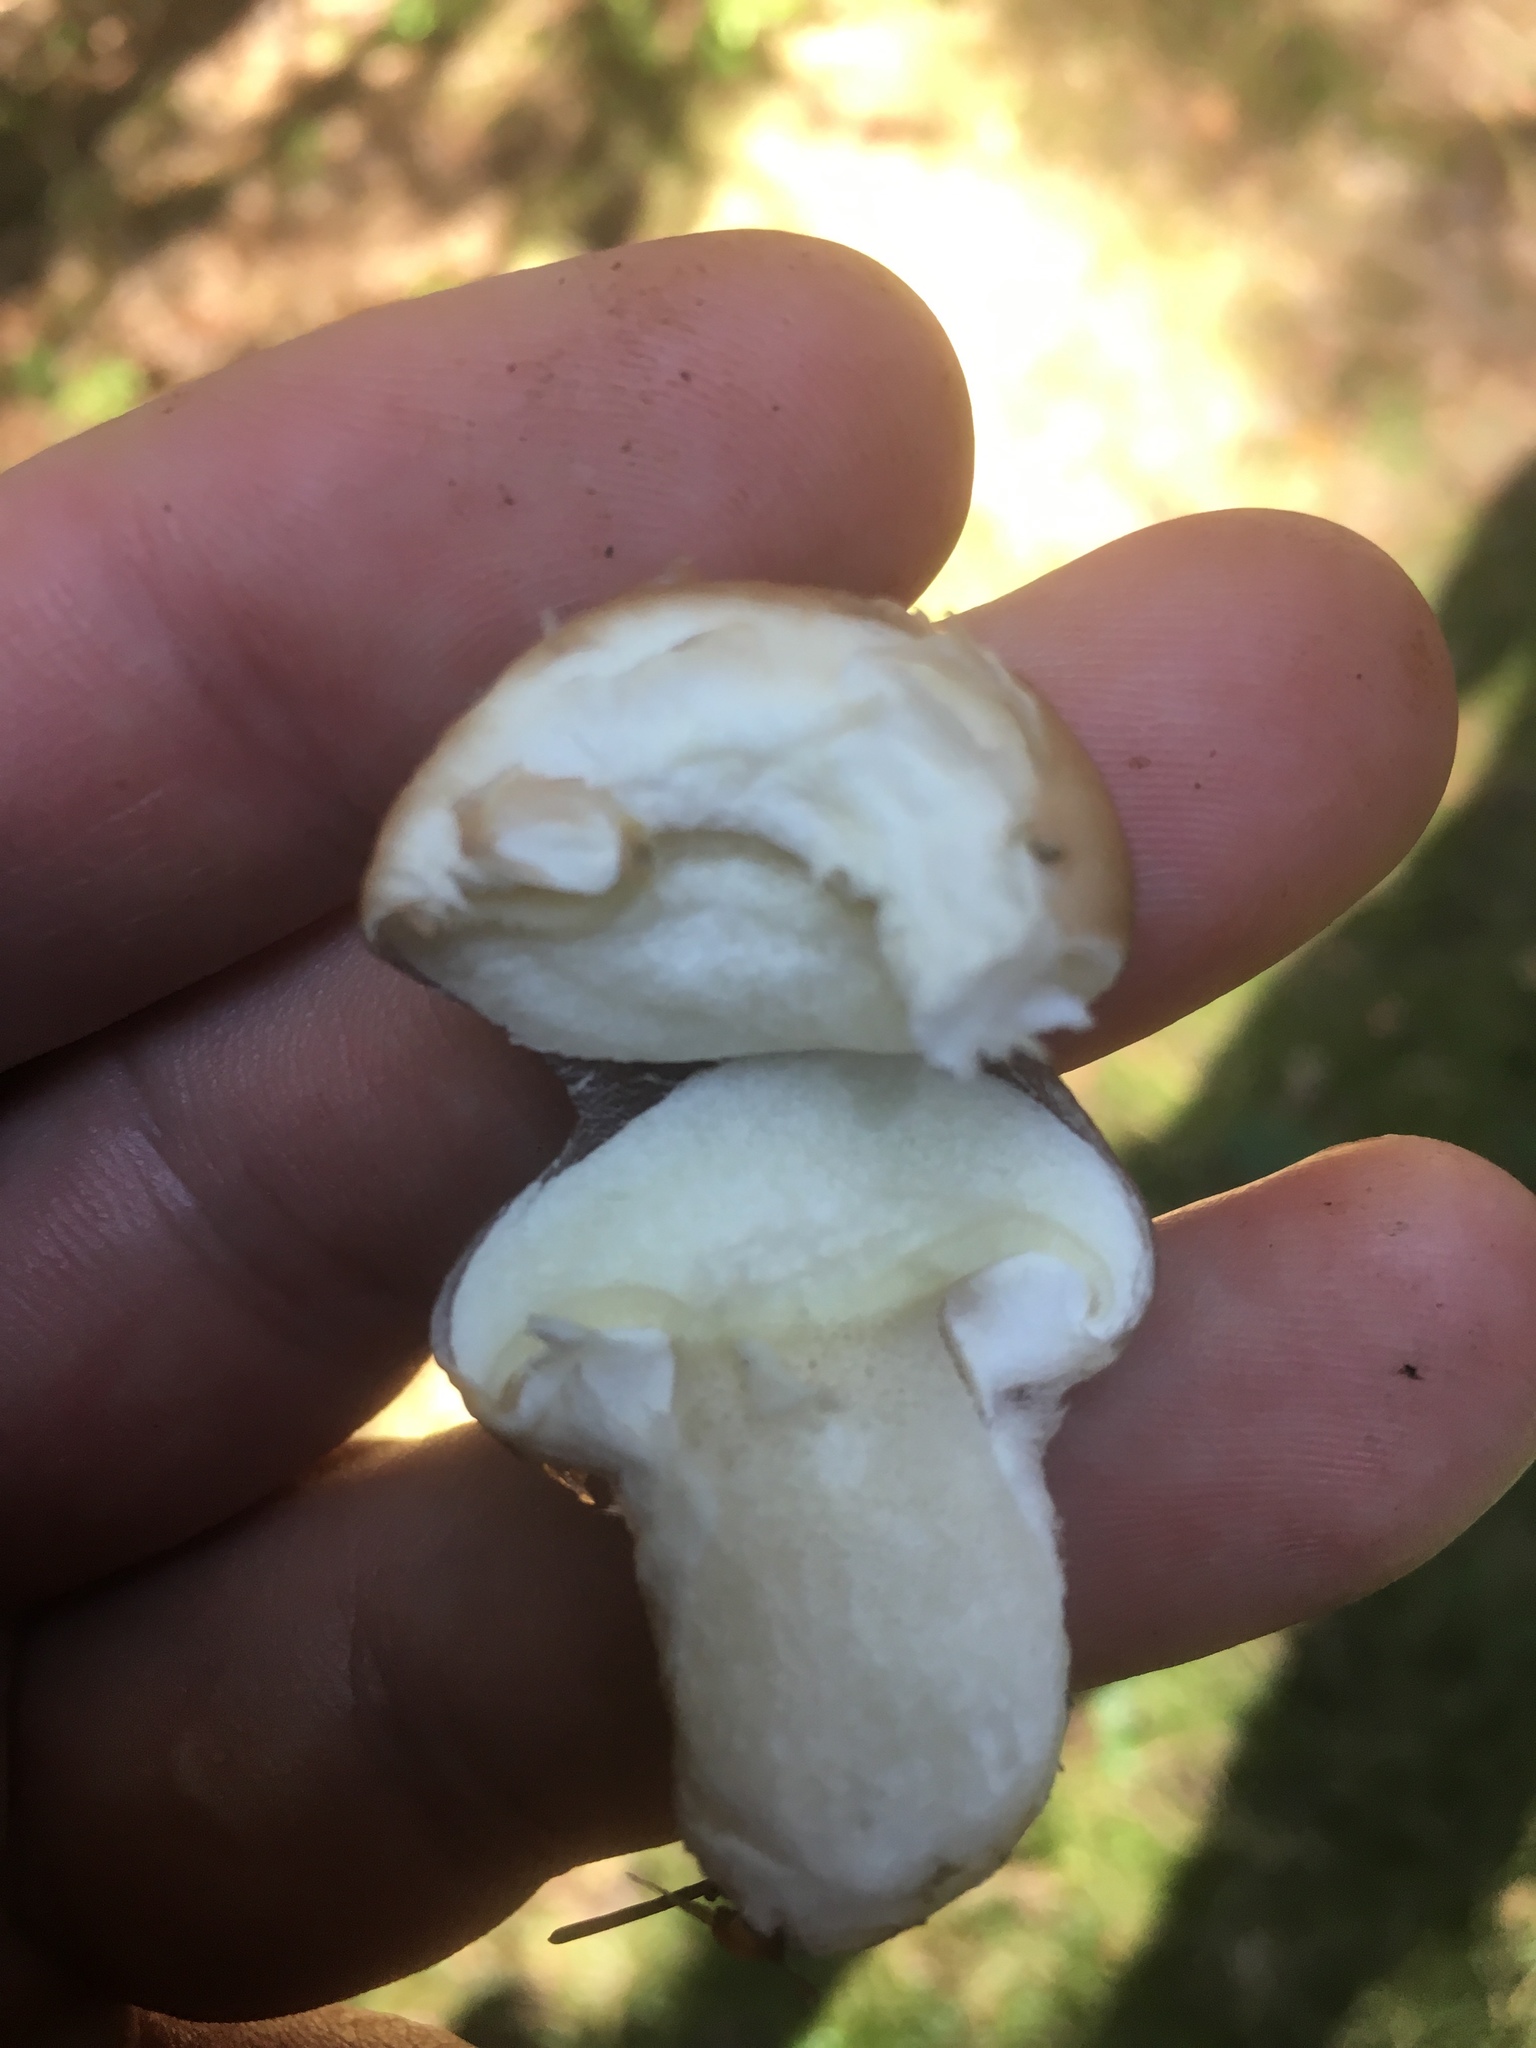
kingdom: Fungi
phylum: Basidiomycota
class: Agaricomycetes
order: Boletales
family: Suillaceae
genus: Suillus
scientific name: Suillus luteus
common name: Slippery jack
